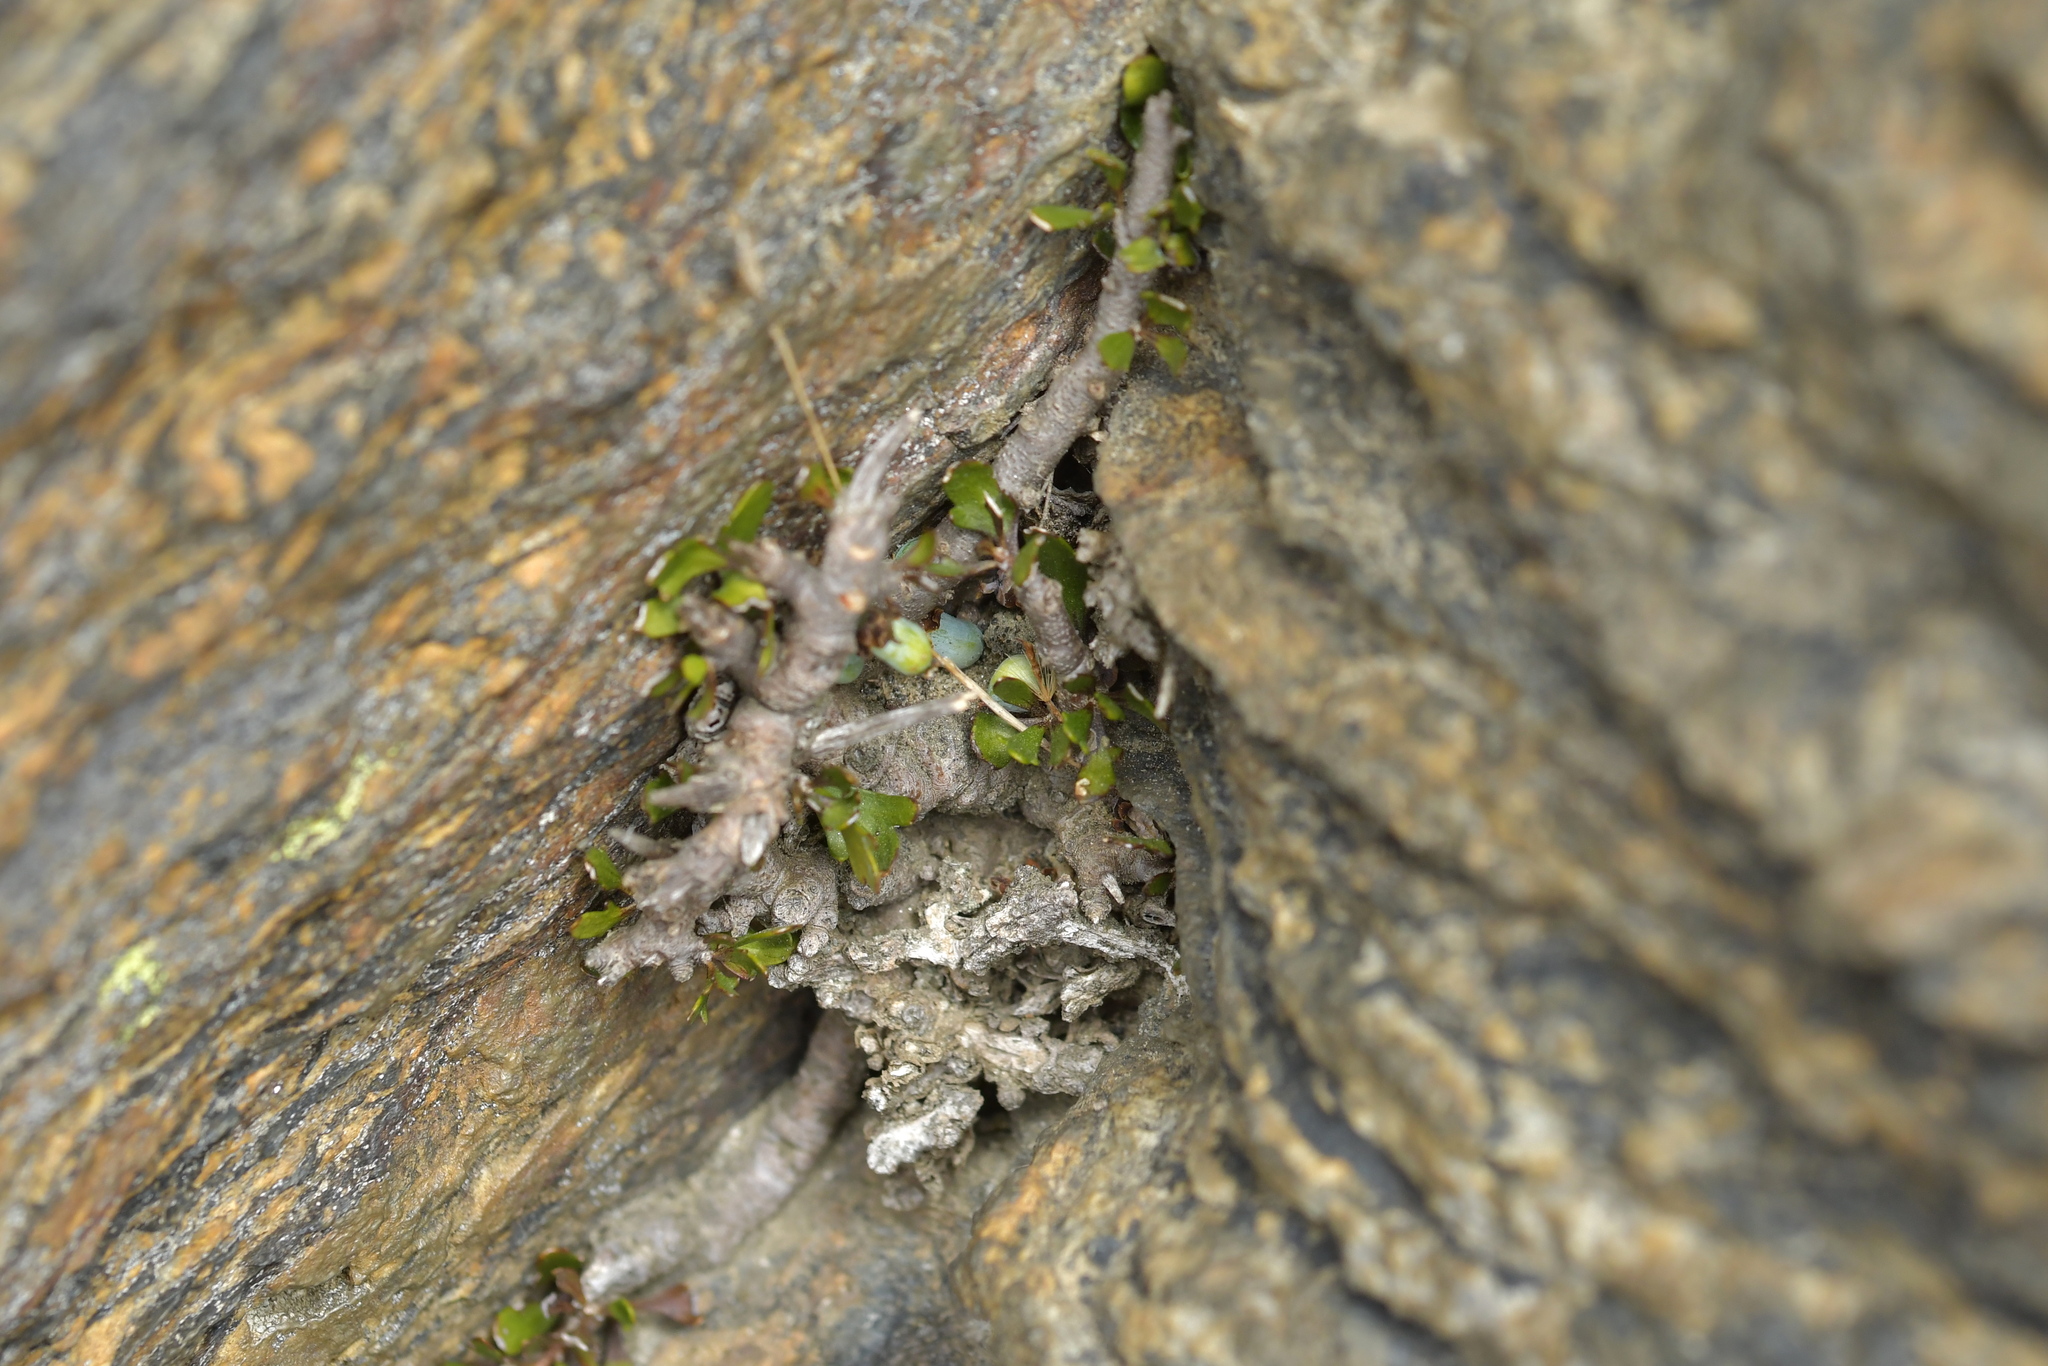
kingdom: Plantae
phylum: Tracheophyta
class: Magnoliopsida
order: Malpighiales
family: Violaceae
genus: Melicytus
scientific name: Melicytus alpinus
